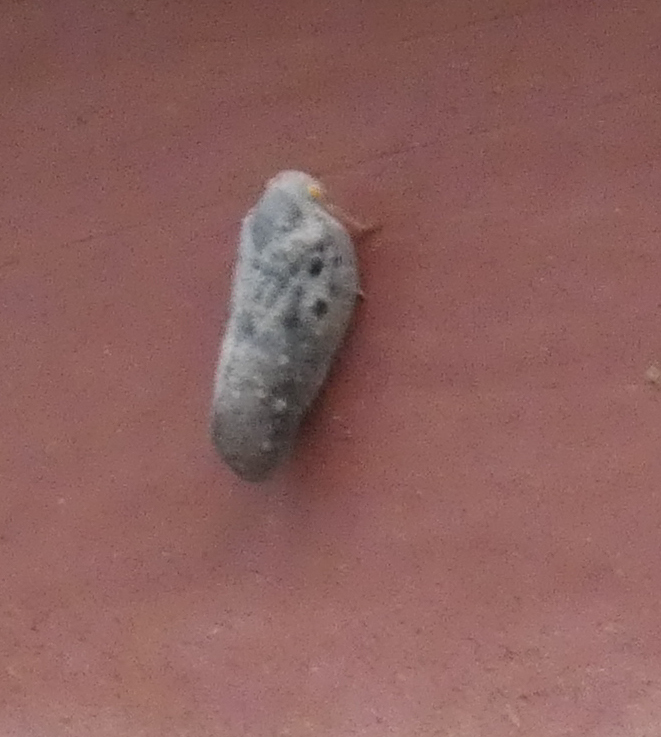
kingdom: Animalia
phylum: Arthropoda
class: Insecta
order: Hemiptera
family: Flatidae
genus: Metcalfa
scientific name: Metcalfa pruinosa
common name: Citrus flatid planthopper
